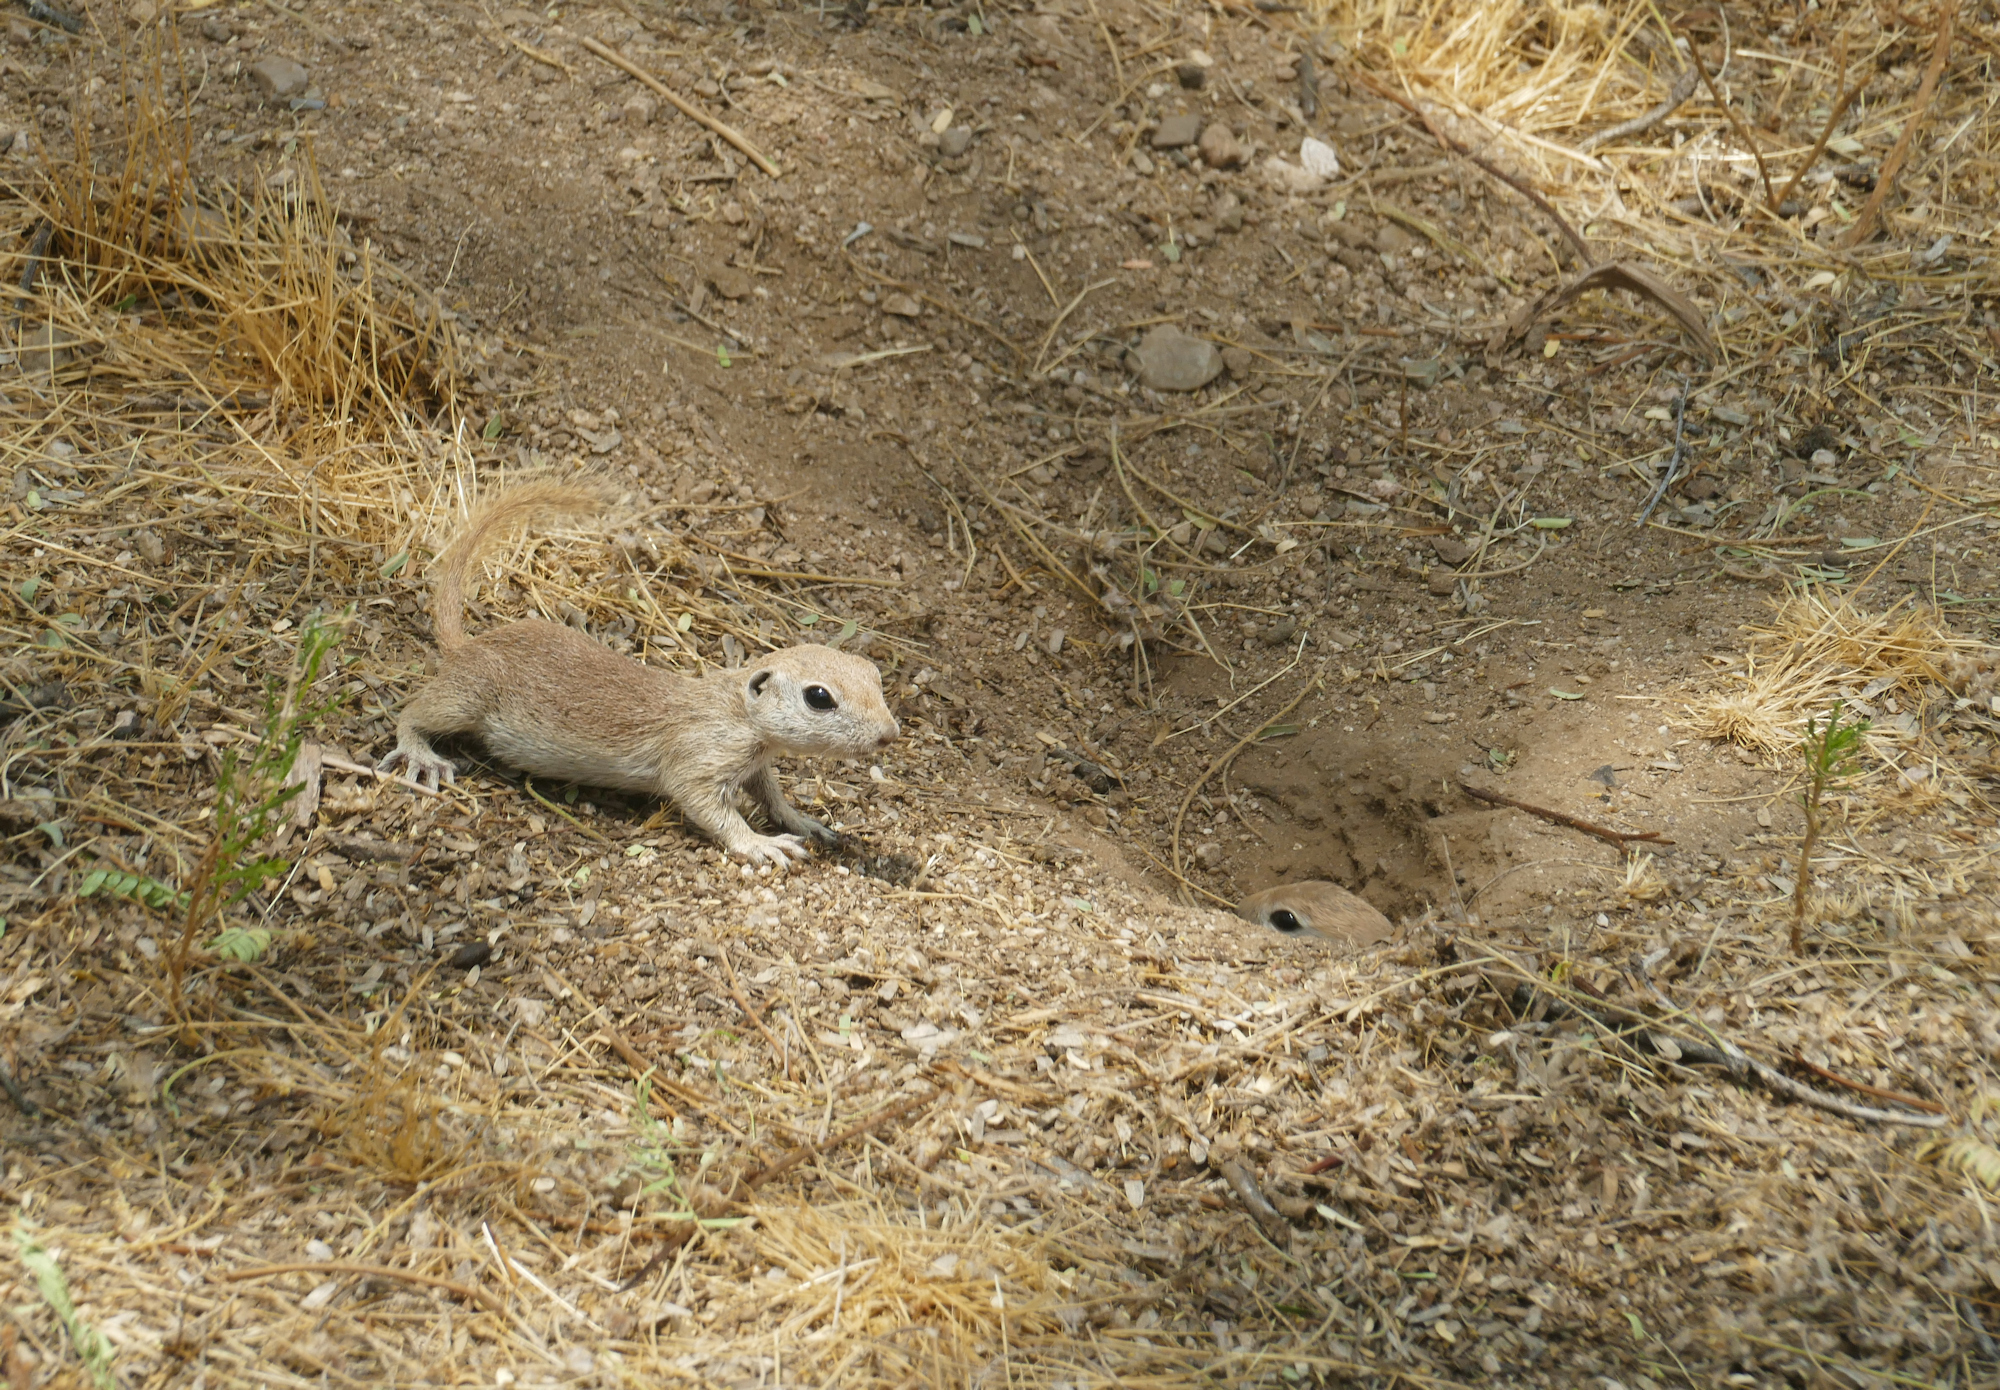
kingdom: Animalia
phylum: Chordata
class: Mammalia
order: Rodentia
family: Sciuridae
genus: Xerospermophilus
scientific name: Xerospermophilus tereticaudus
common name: Round-tailed ground squirrel
